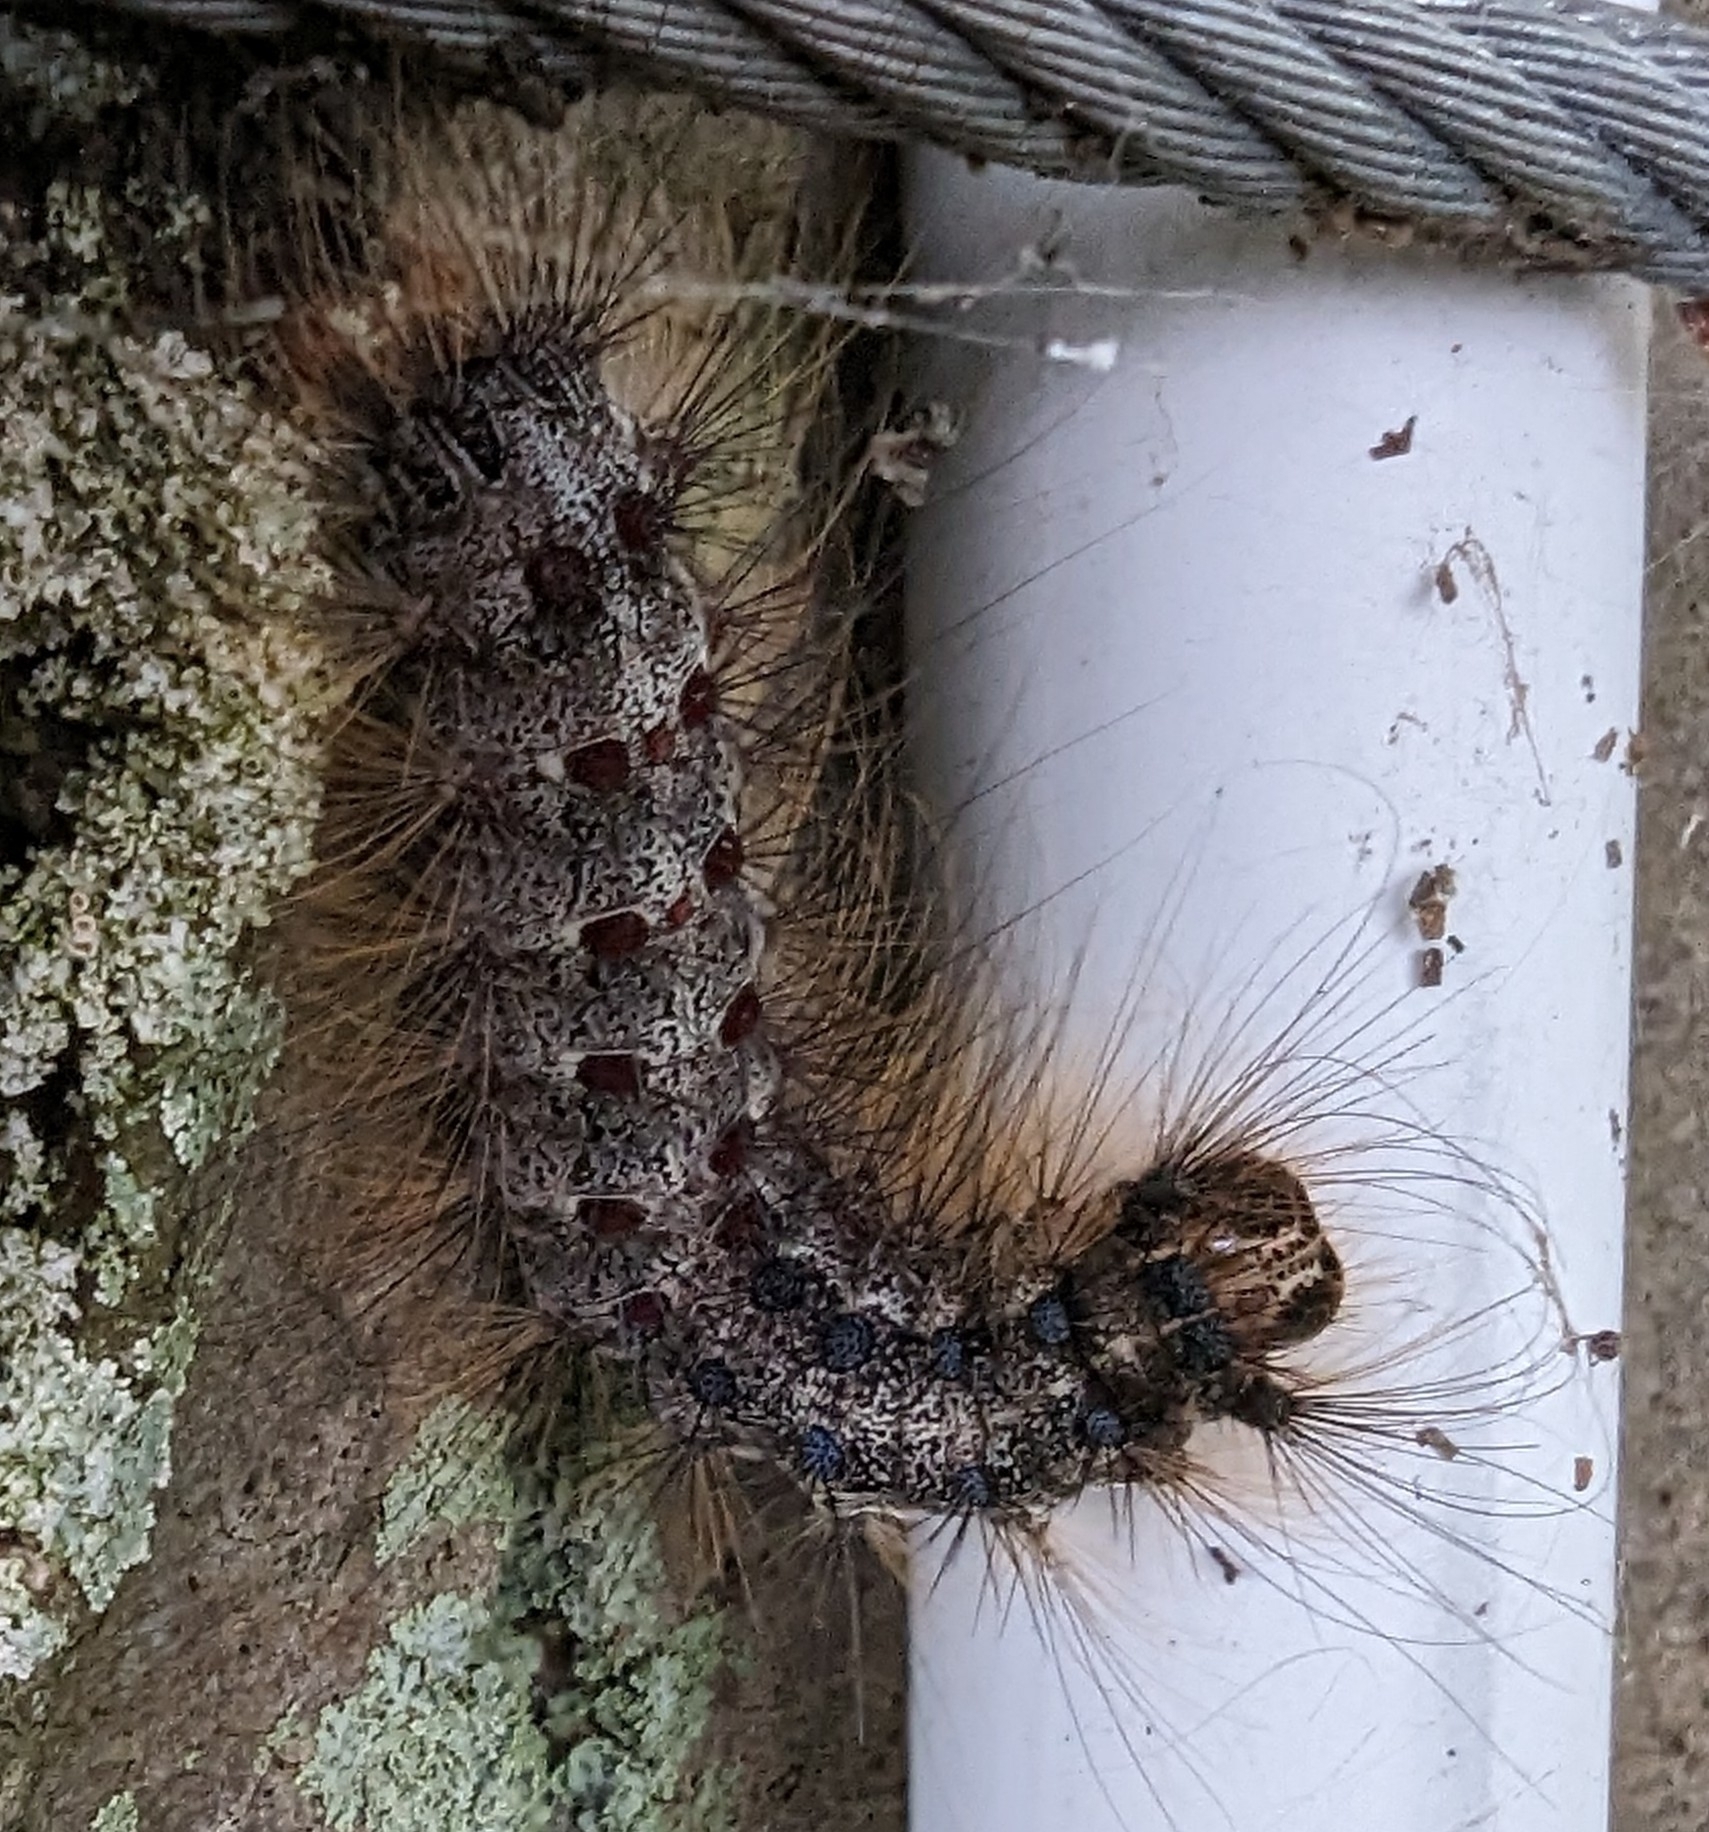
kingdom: Animalia
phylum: Arthropoda
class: Insecta
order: Lepidoptera
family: Erebidae
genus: Lymantria
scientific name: Lymantria dispar
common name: Gypsy moth
